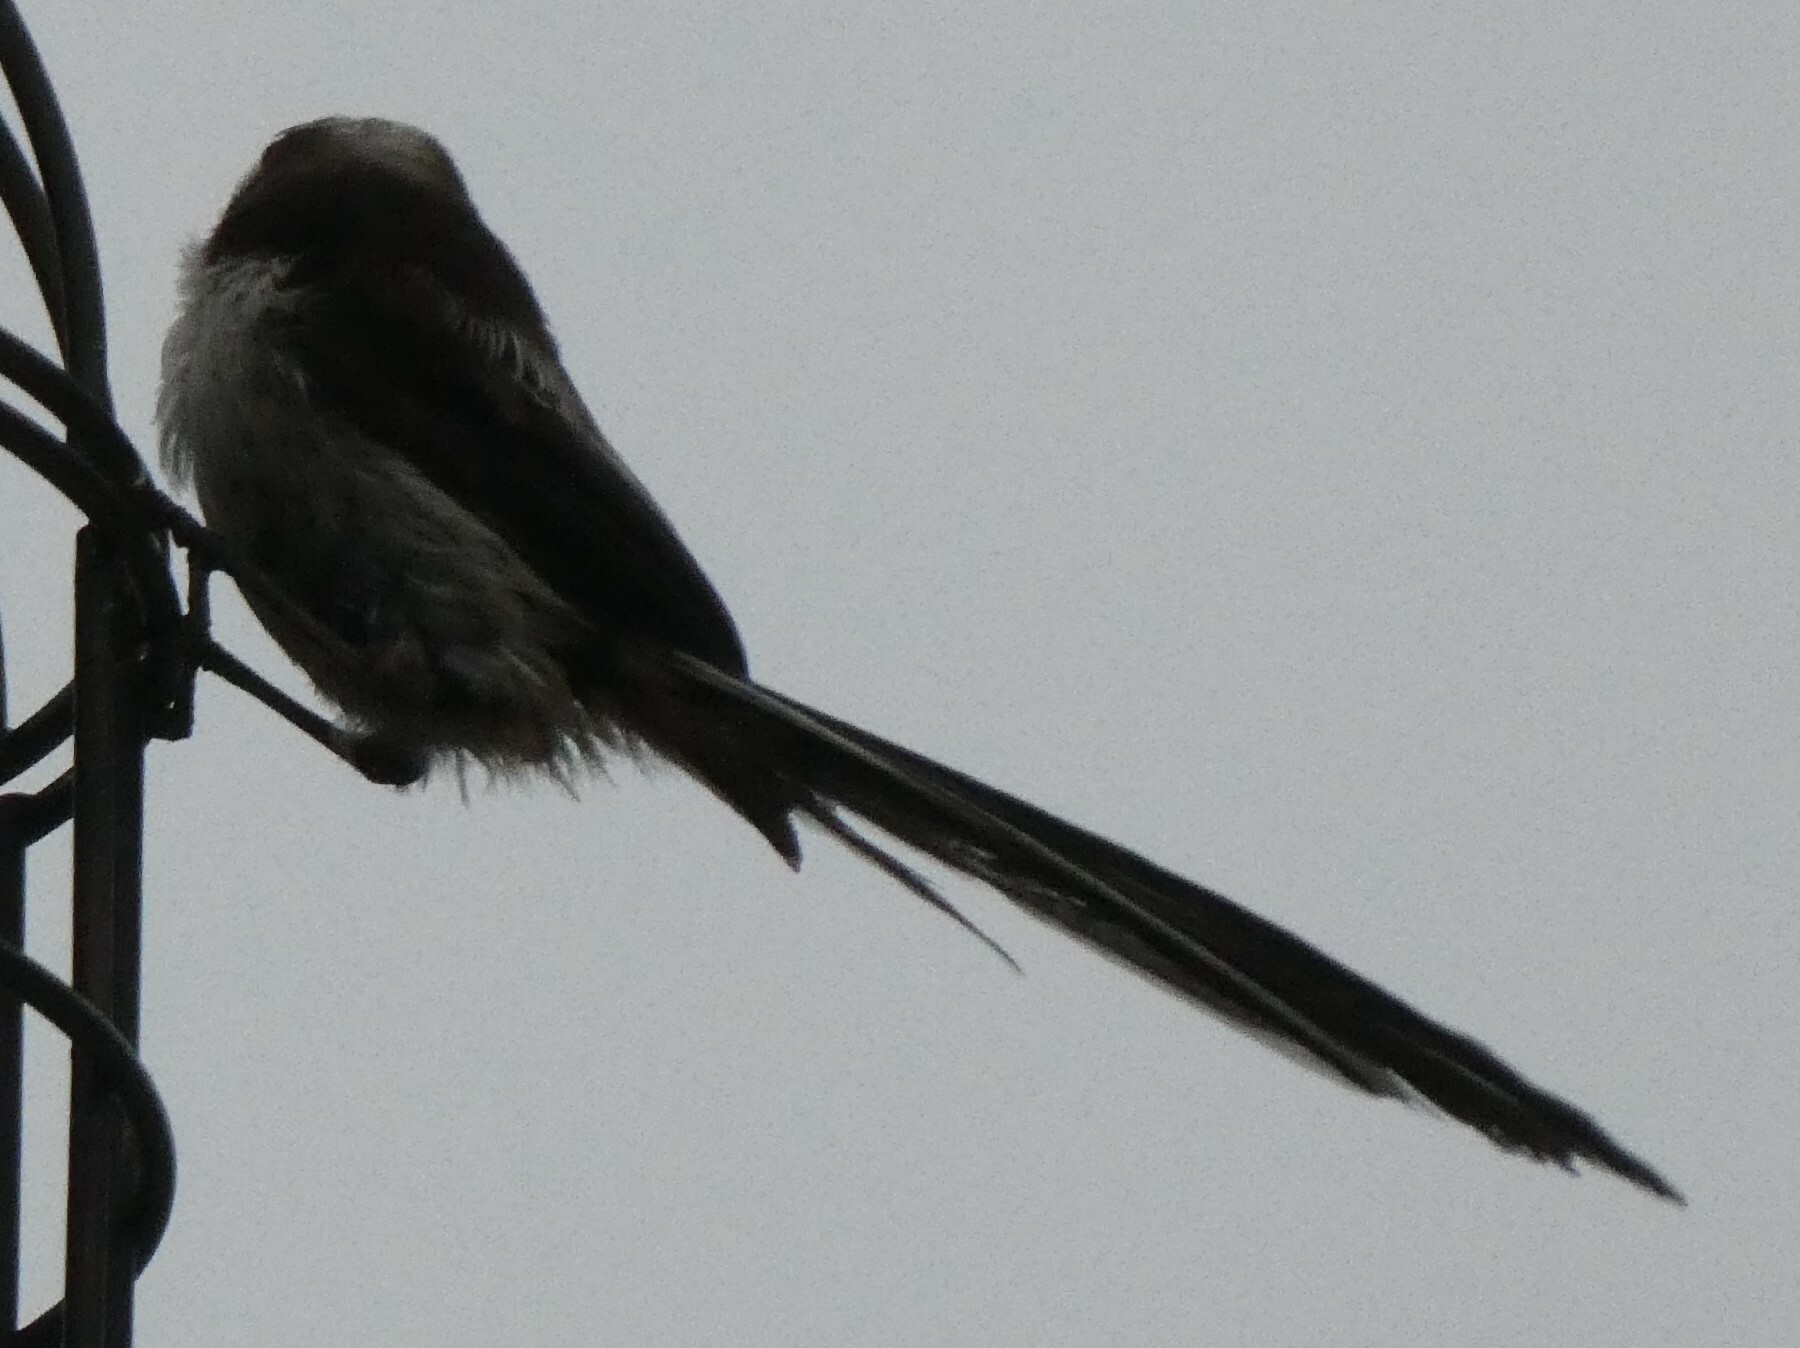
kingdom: Animalia
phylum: Chordata
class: Aves
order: Passeriformes
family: Aegithalidae
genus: Aegithalos
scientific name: Aegithalos caudatus
